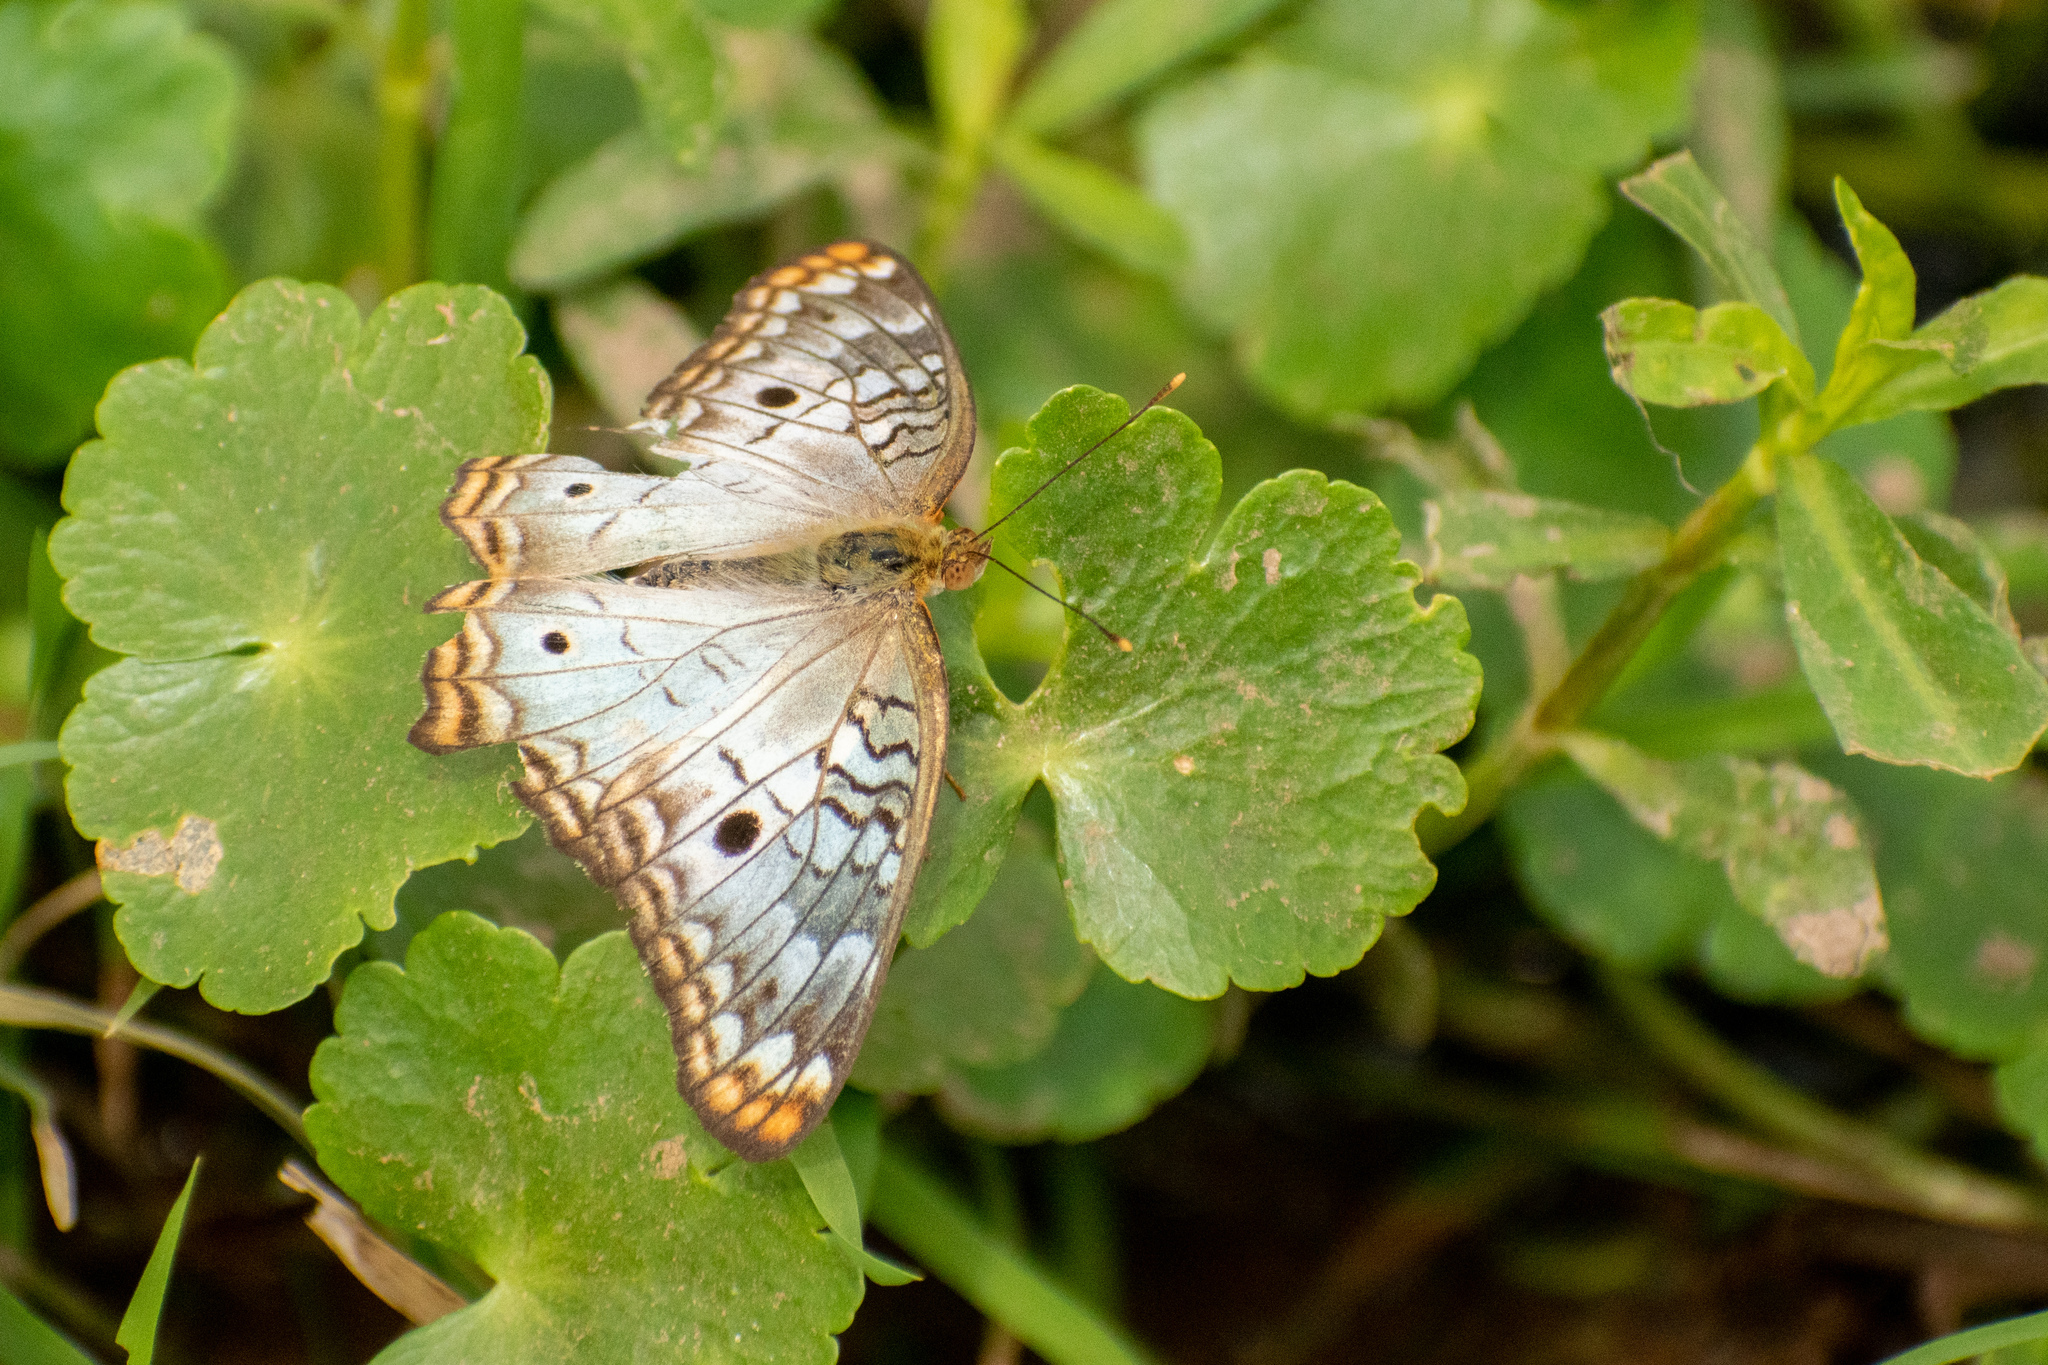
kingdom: Animalia
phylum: Arthropoda
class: Insecta
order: Lepidoptera
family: Nymphalidae
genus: Anartia
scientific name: Anartia jatrophae
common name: White peacock
